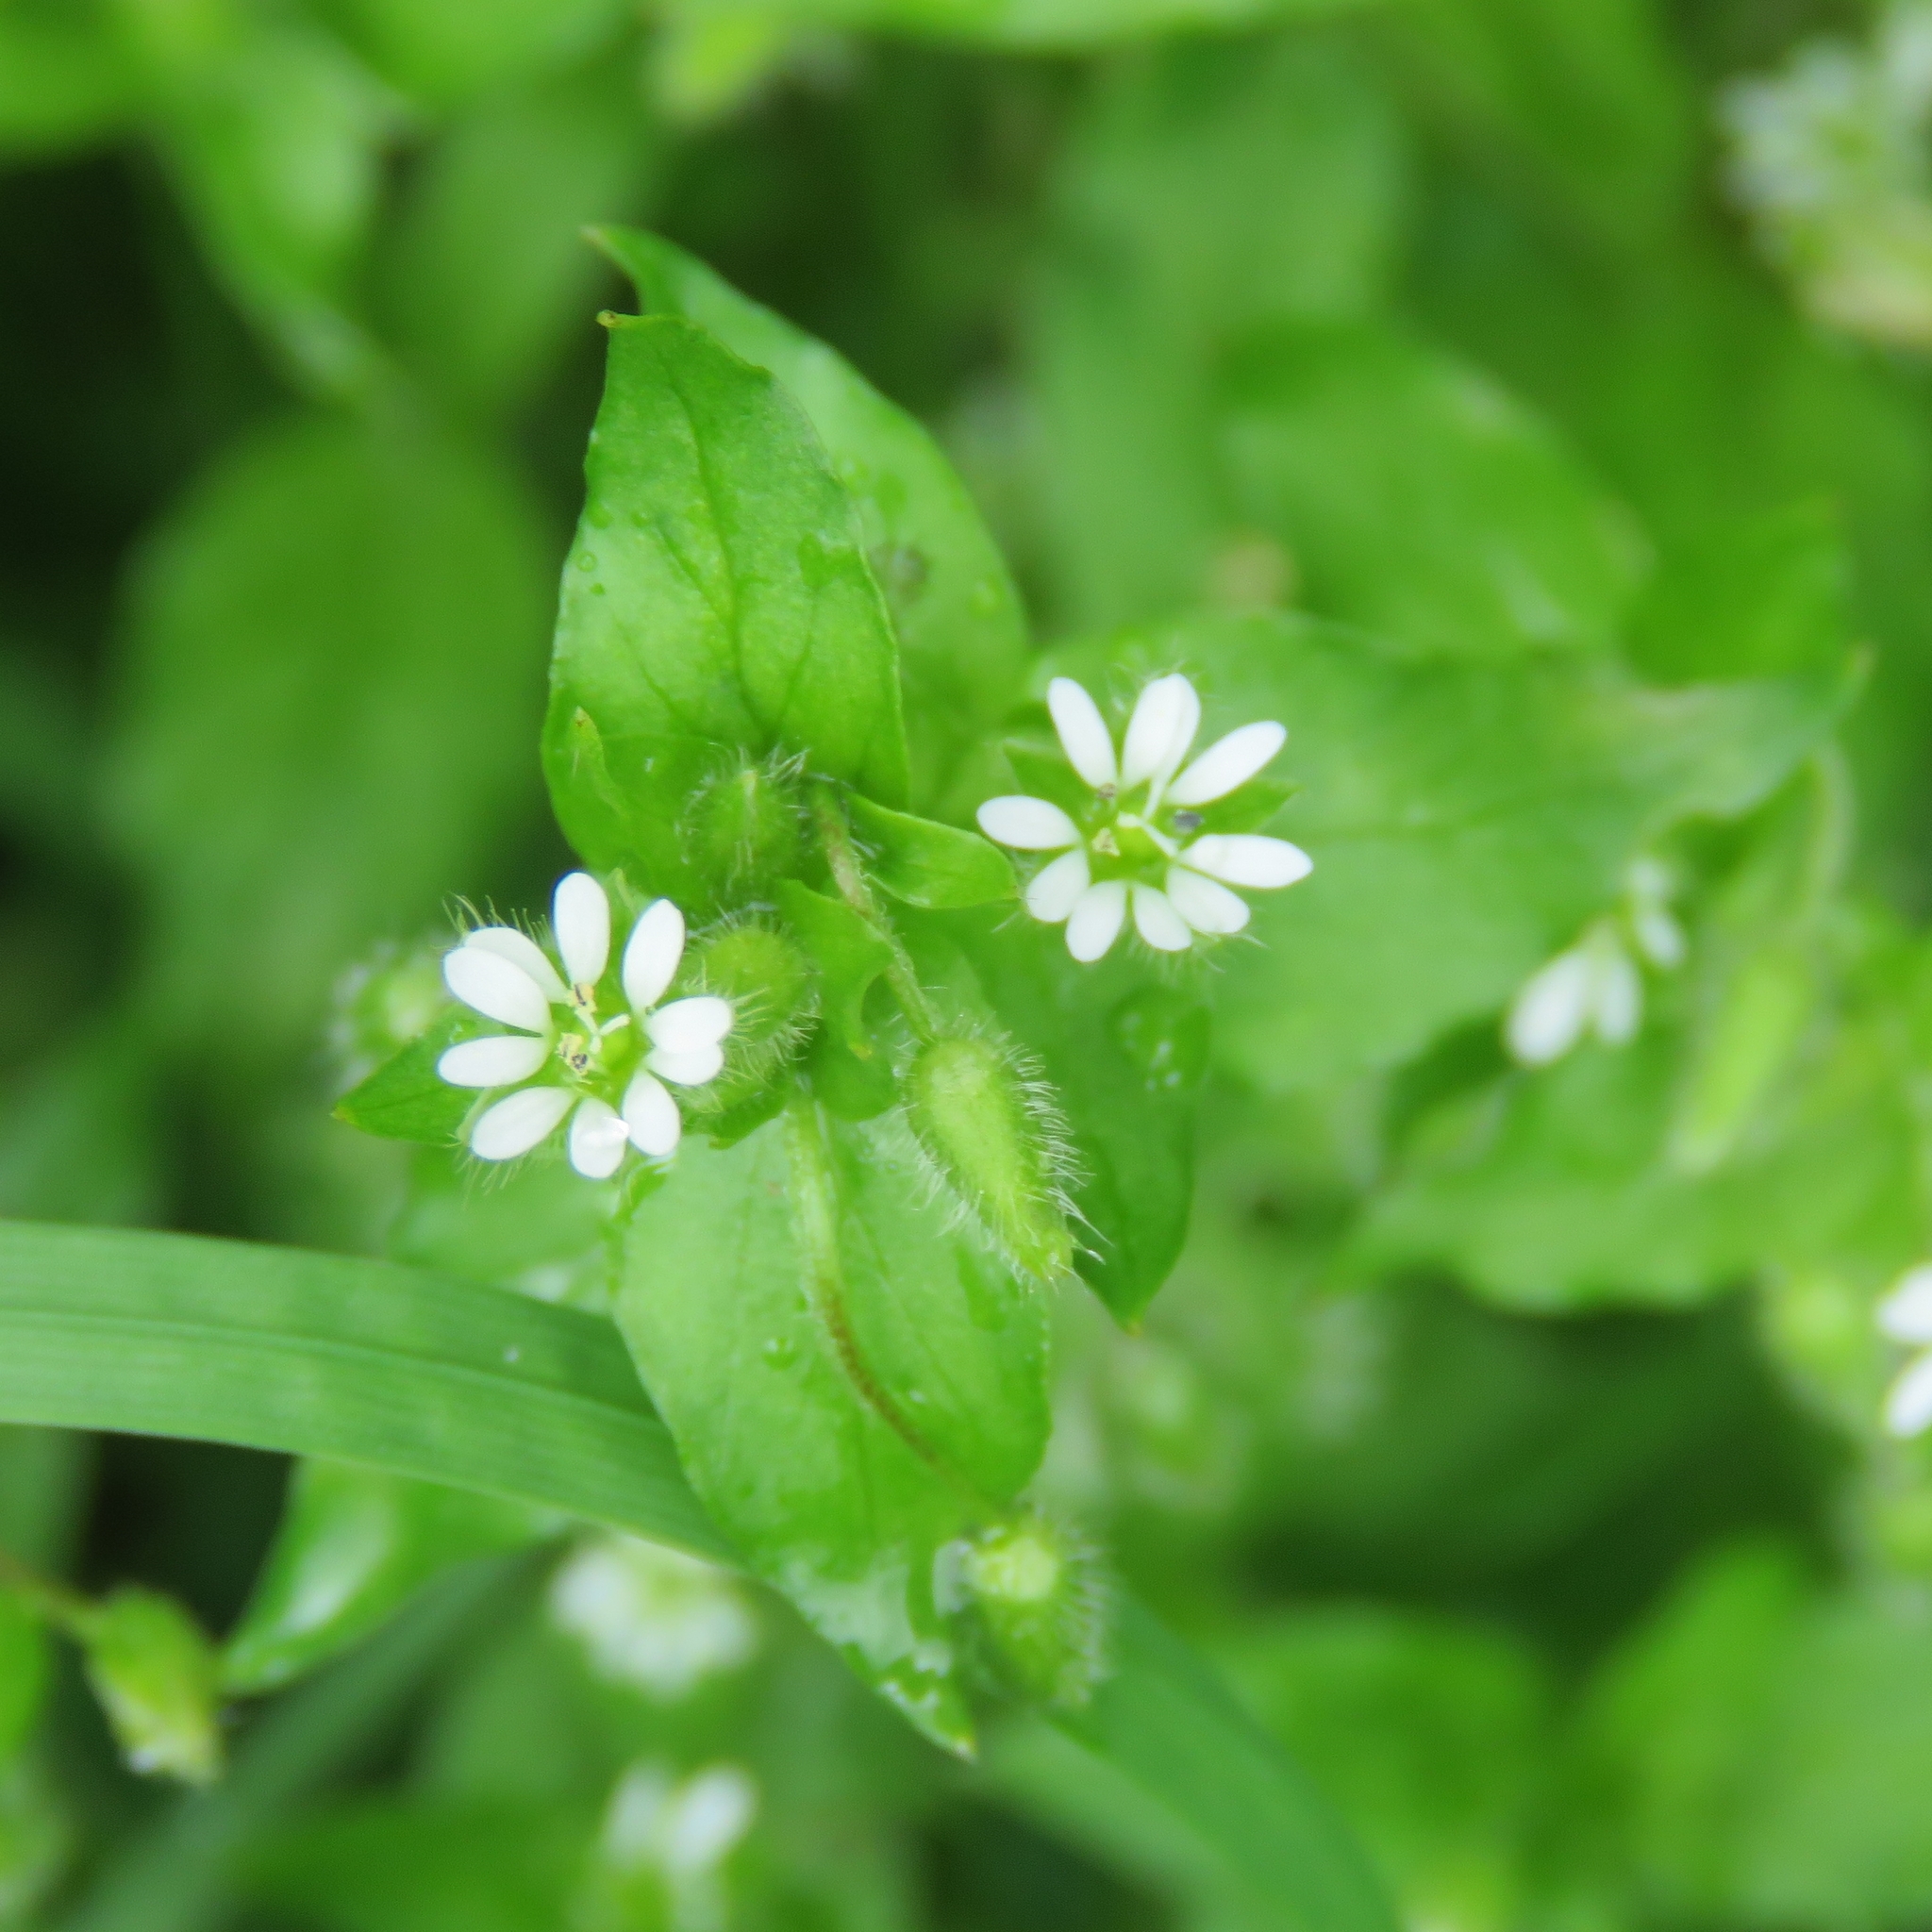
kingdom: Plantae
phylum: Tracheophyta
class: Magnoliopsida
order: Caryophyllales
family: Caryophyllaceae
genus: Stellaria
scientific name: Stellaria media
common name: Common chickweed
